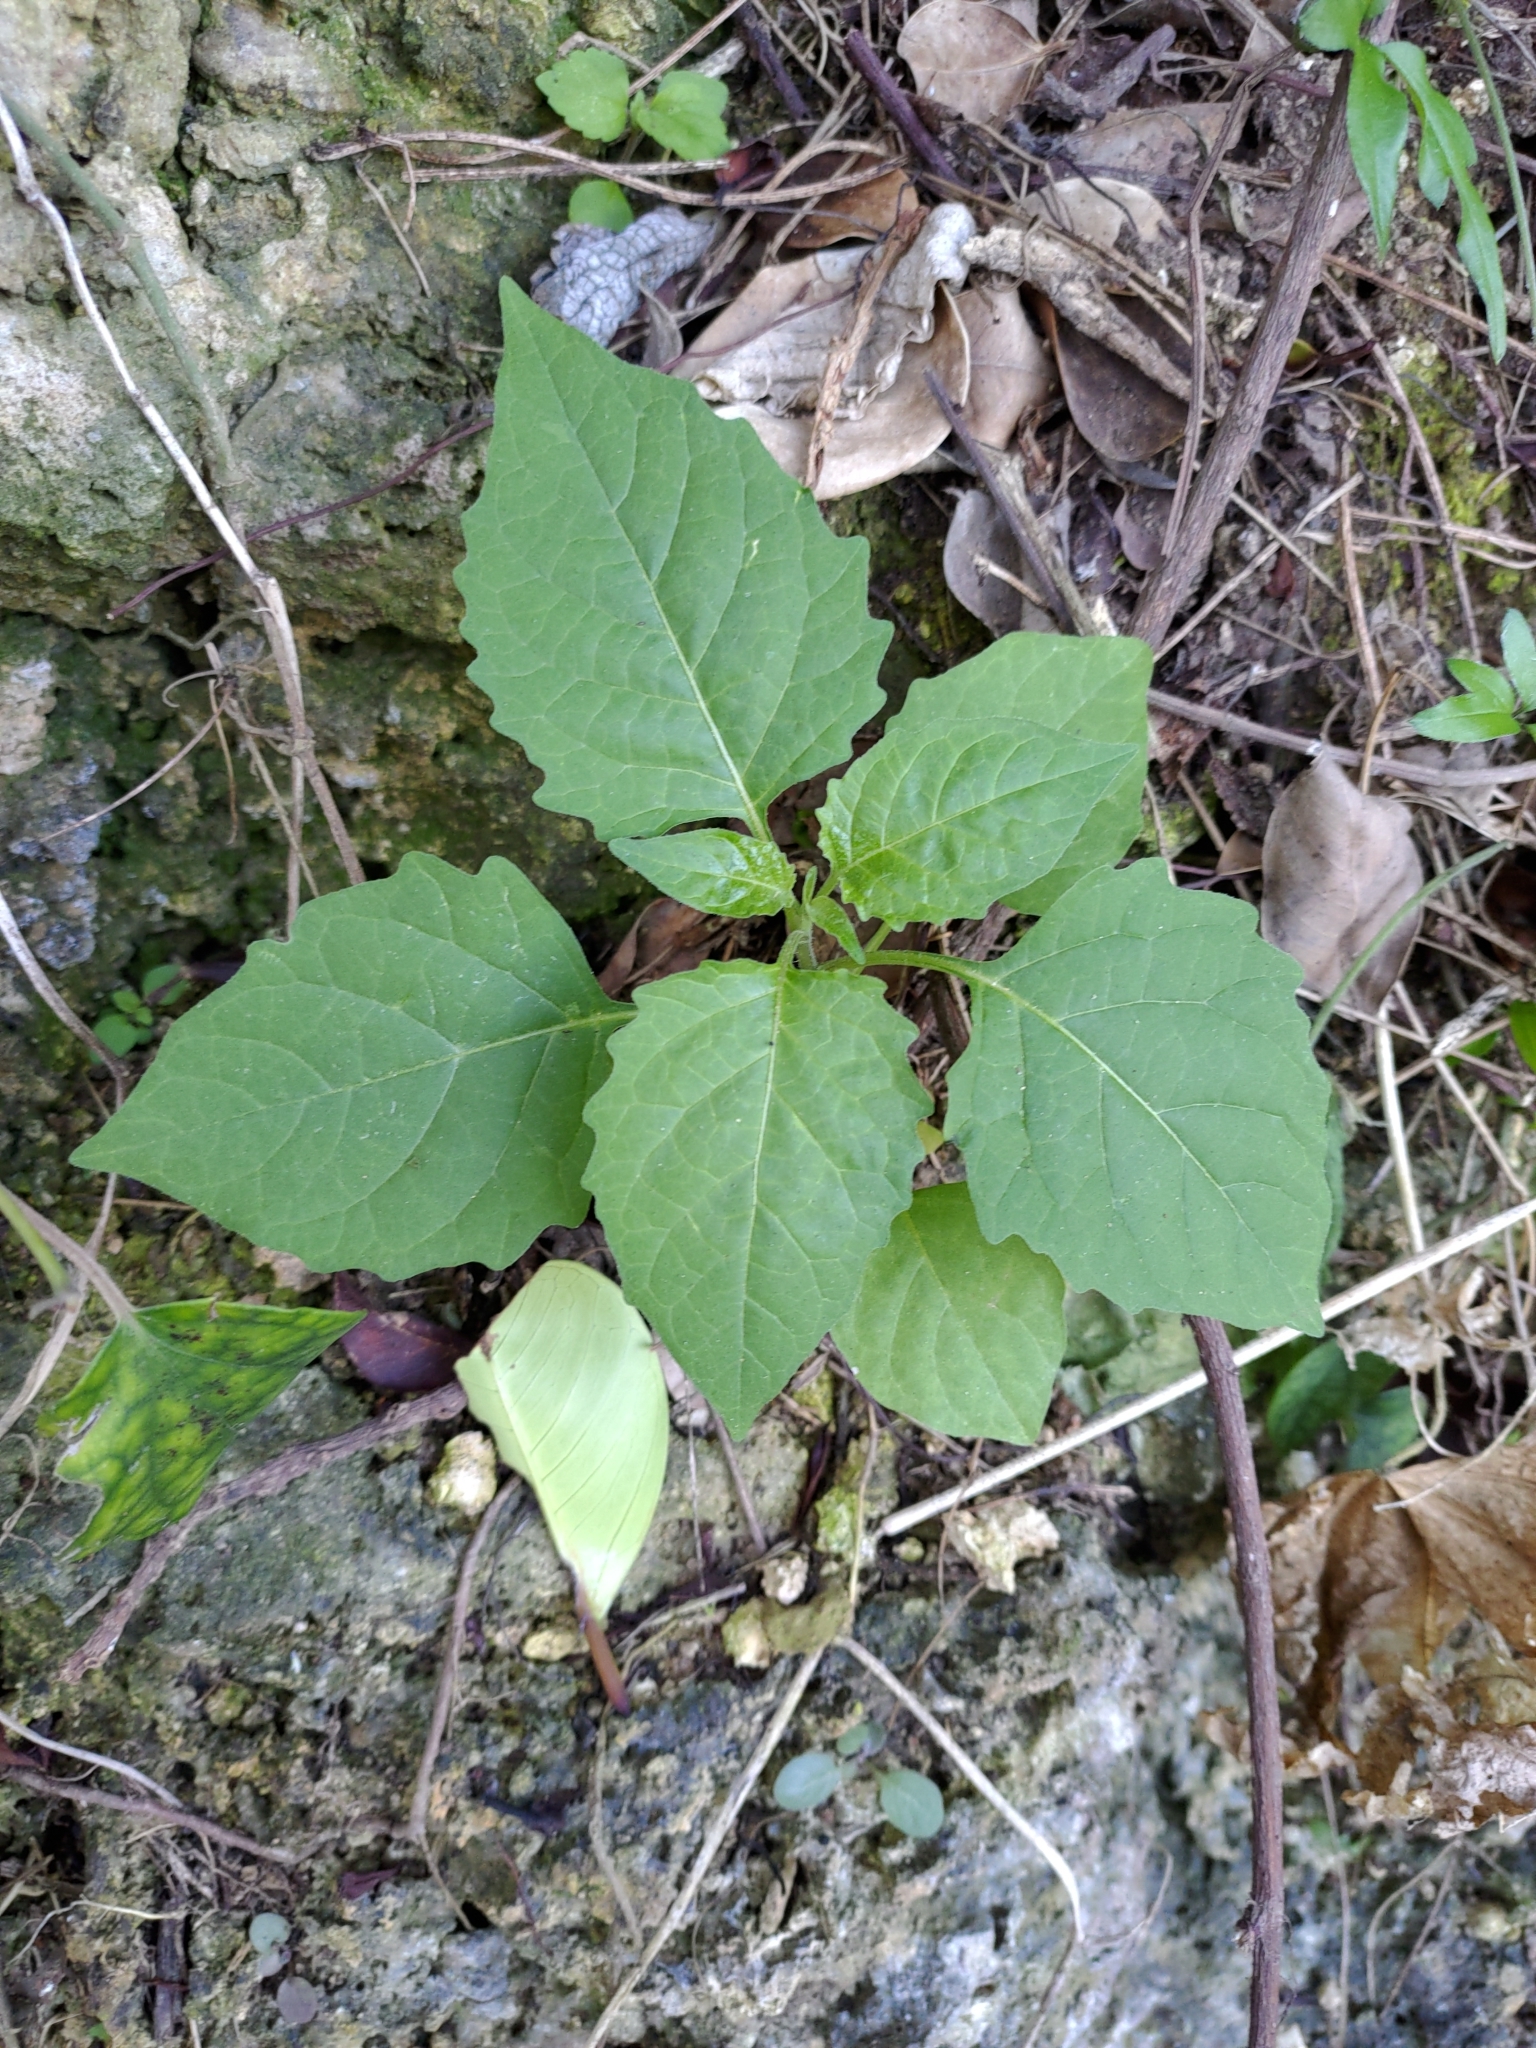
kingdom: Plantae
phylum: Tracheophyta
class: Magnoliopsida
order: Solanales
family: Solanaceae
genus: Solanum
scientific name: Solanum
